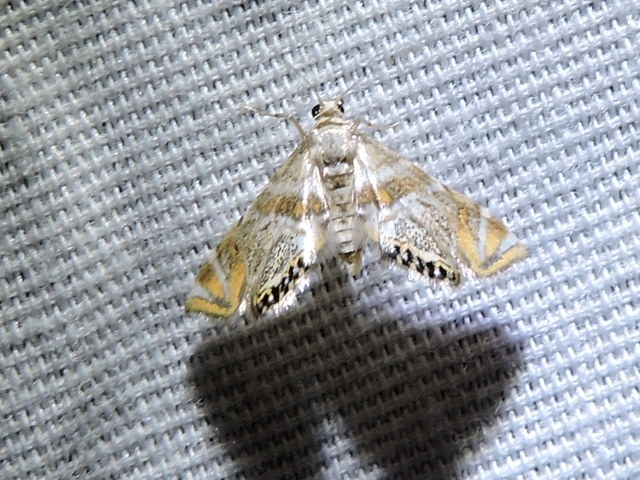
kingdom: Animalia
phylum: Arthropoda
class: Insecta
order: Lepidoptera
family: Crambidae
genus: Petrophila
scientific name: Petrophila heppneri
